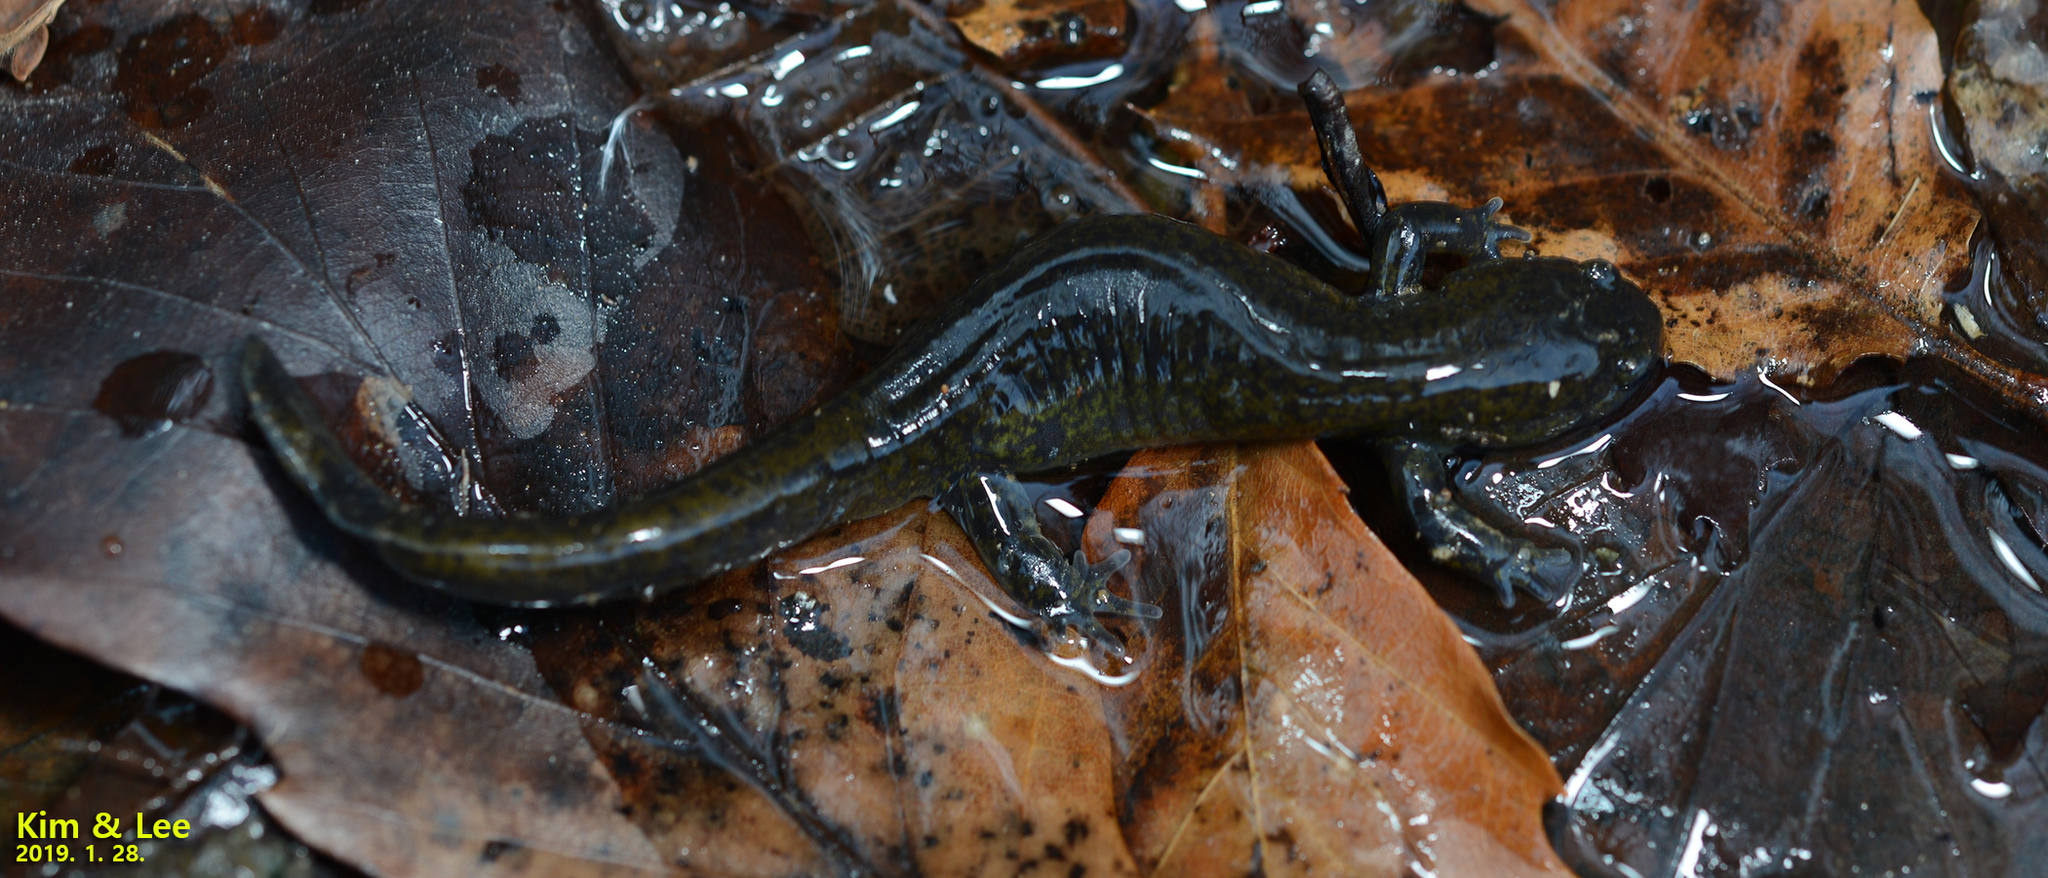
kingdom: Animalia
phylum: Chordata
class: Amphibia
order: Caudata
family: Hynobiidae
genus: Hynobius
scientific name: Hynobius yangi
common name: Yangi salamander
